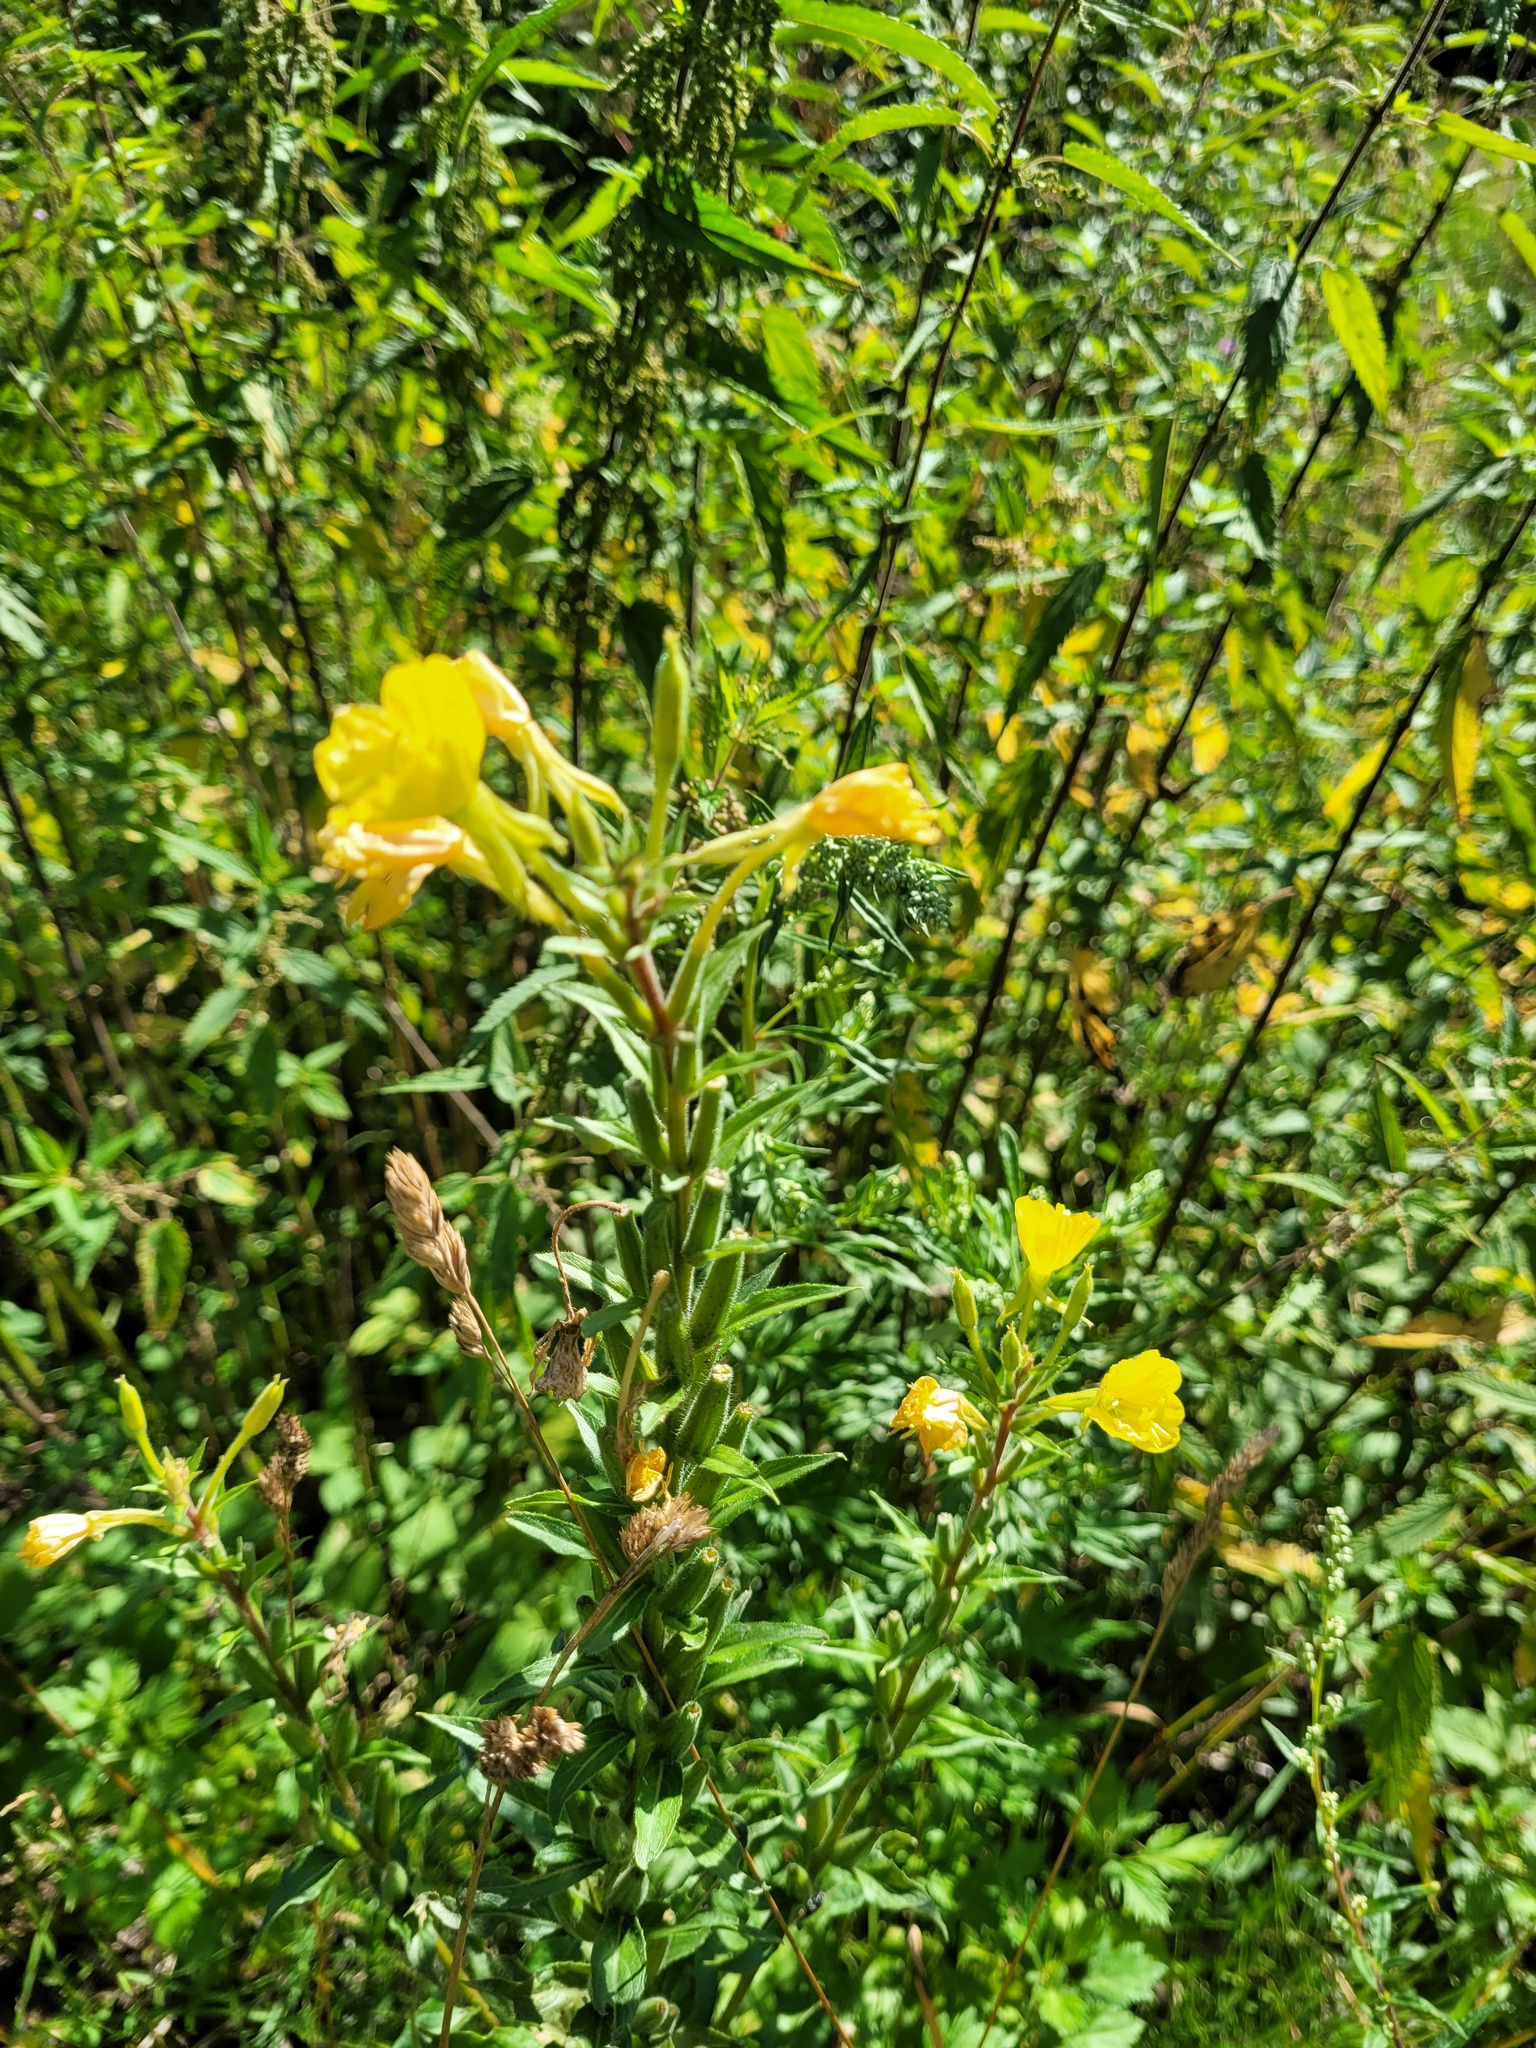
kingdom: Plantae
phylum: Tracheophyta
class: Magnoliopsida
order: Myrtales
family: Onagraceae
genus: Oenothera
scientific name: Oenothera rubricaulis
